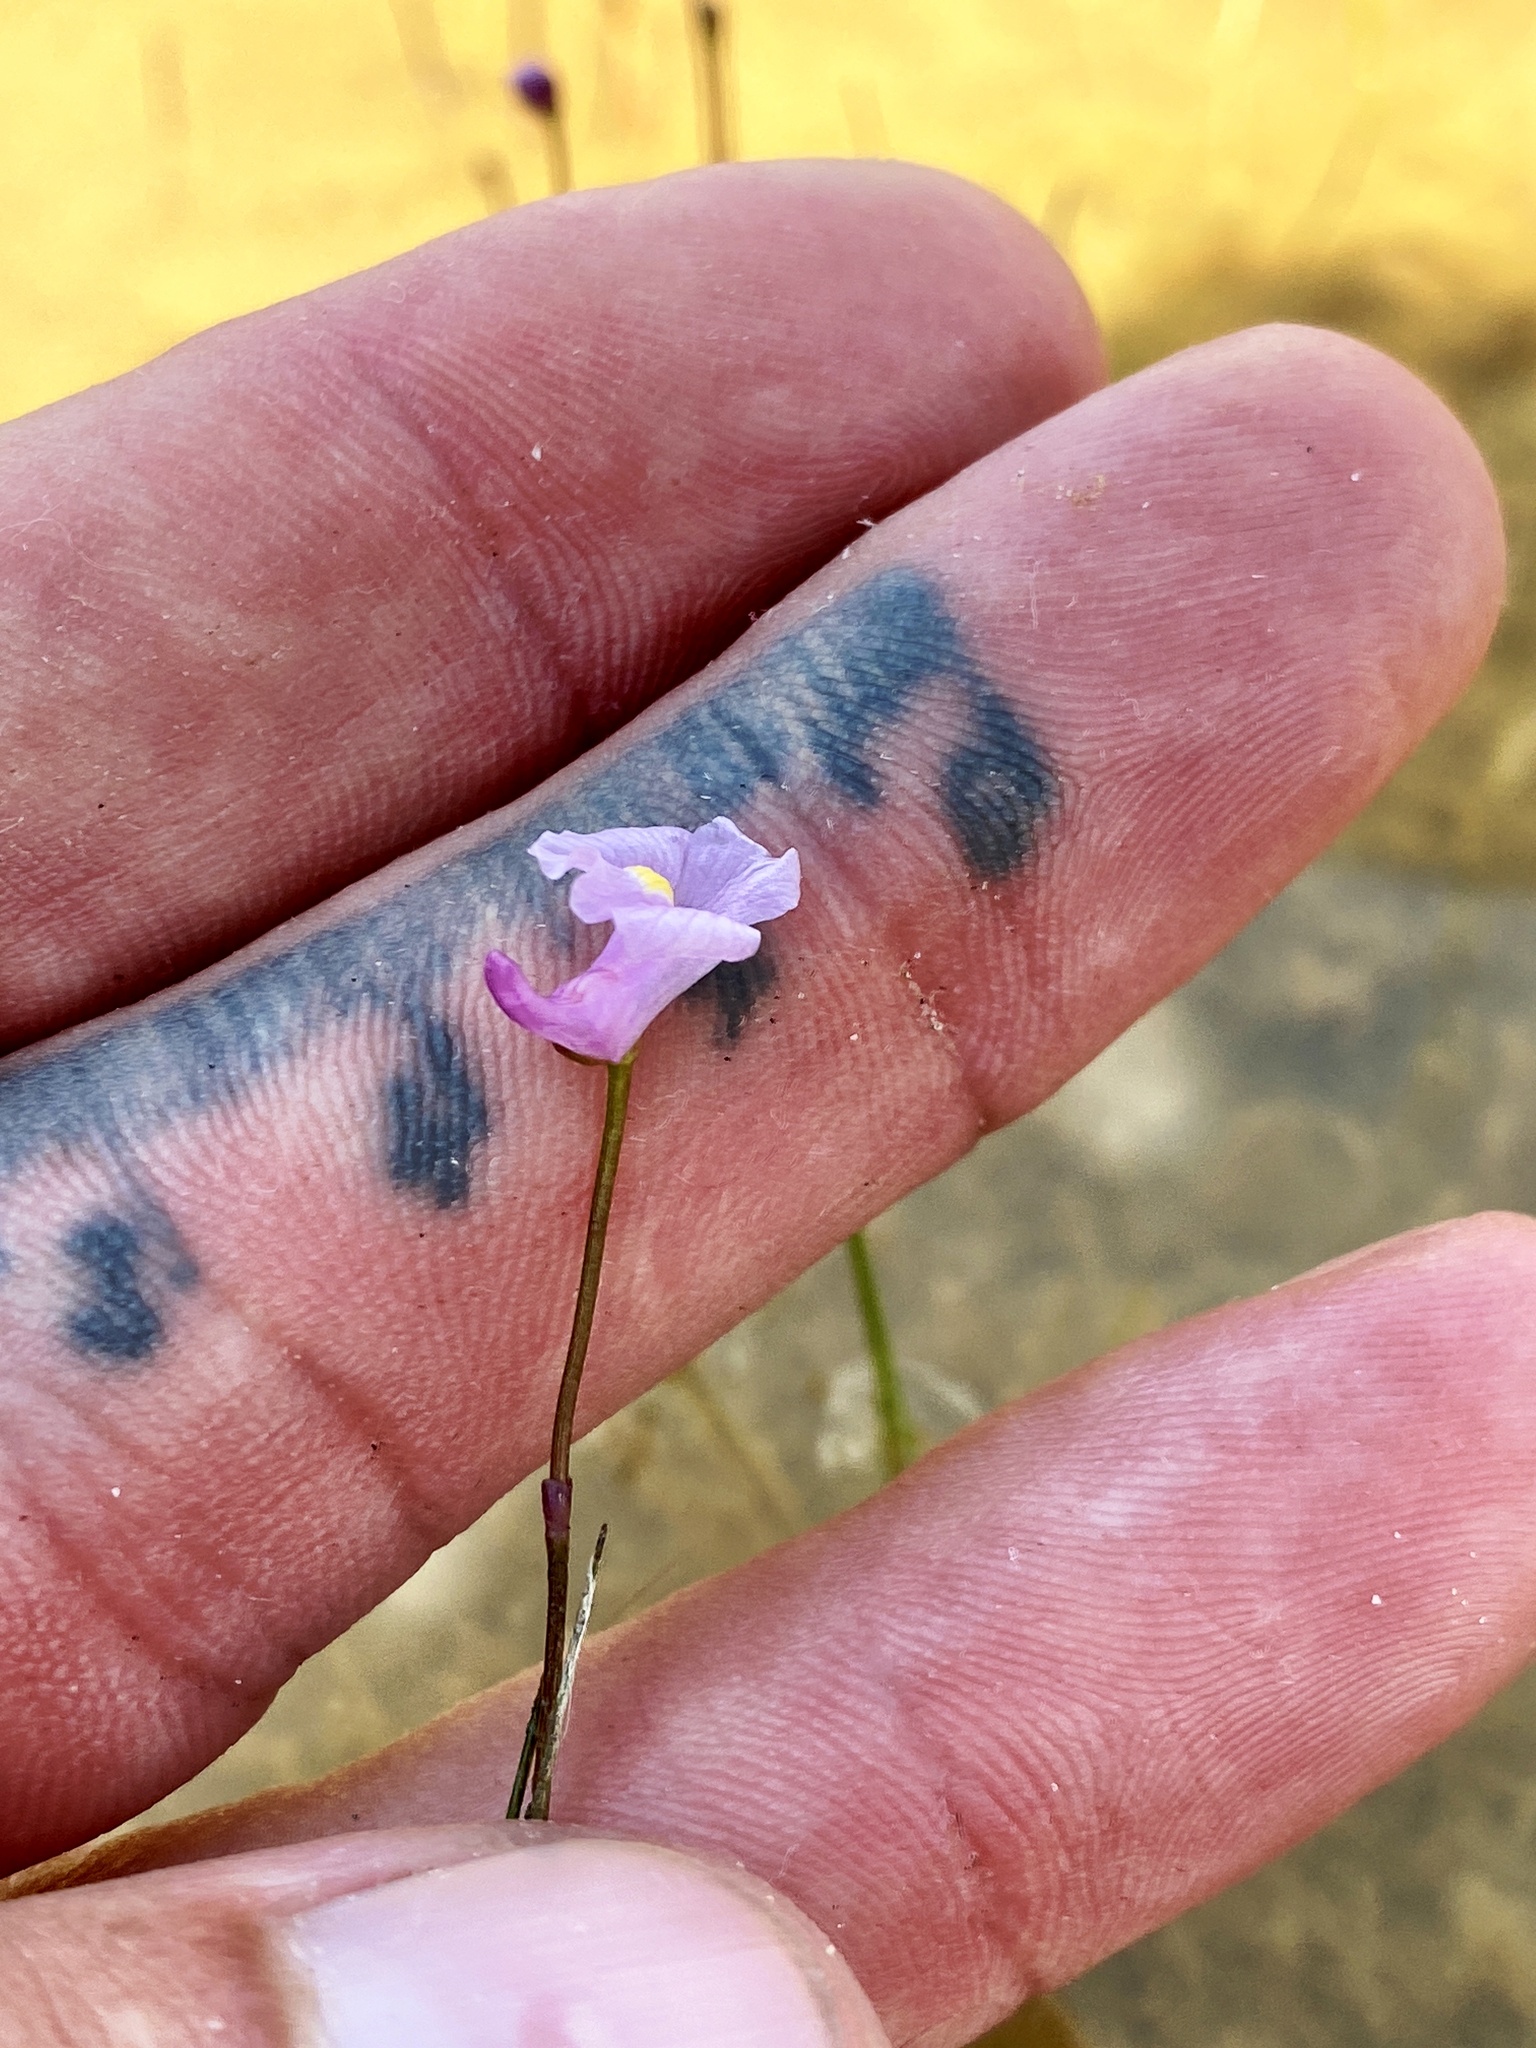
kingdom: Plantae
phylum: Tracheophyta
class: Magnoliopsida
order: Lamiales
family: Lentibulariaceae
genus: Utricularia
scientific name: Utricularia resupinata
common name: Northeastern bladderwort
